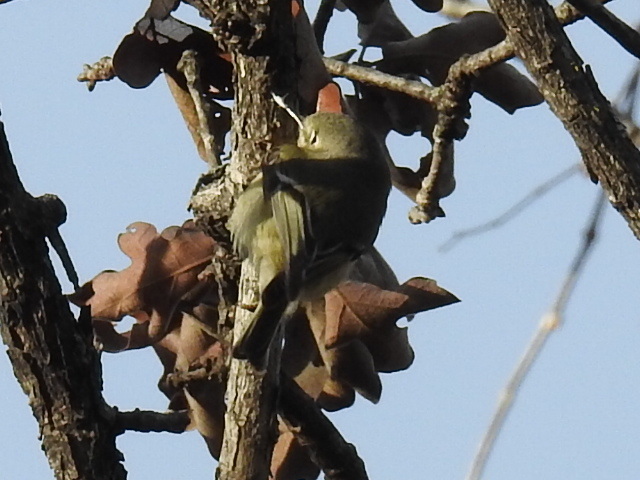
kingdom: Animalia
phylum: Chordata
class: Aves
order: Passeriformes
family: Regulidae
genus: Regulus
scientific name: Regulus calendula
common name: Ruby-crowned kinglet
